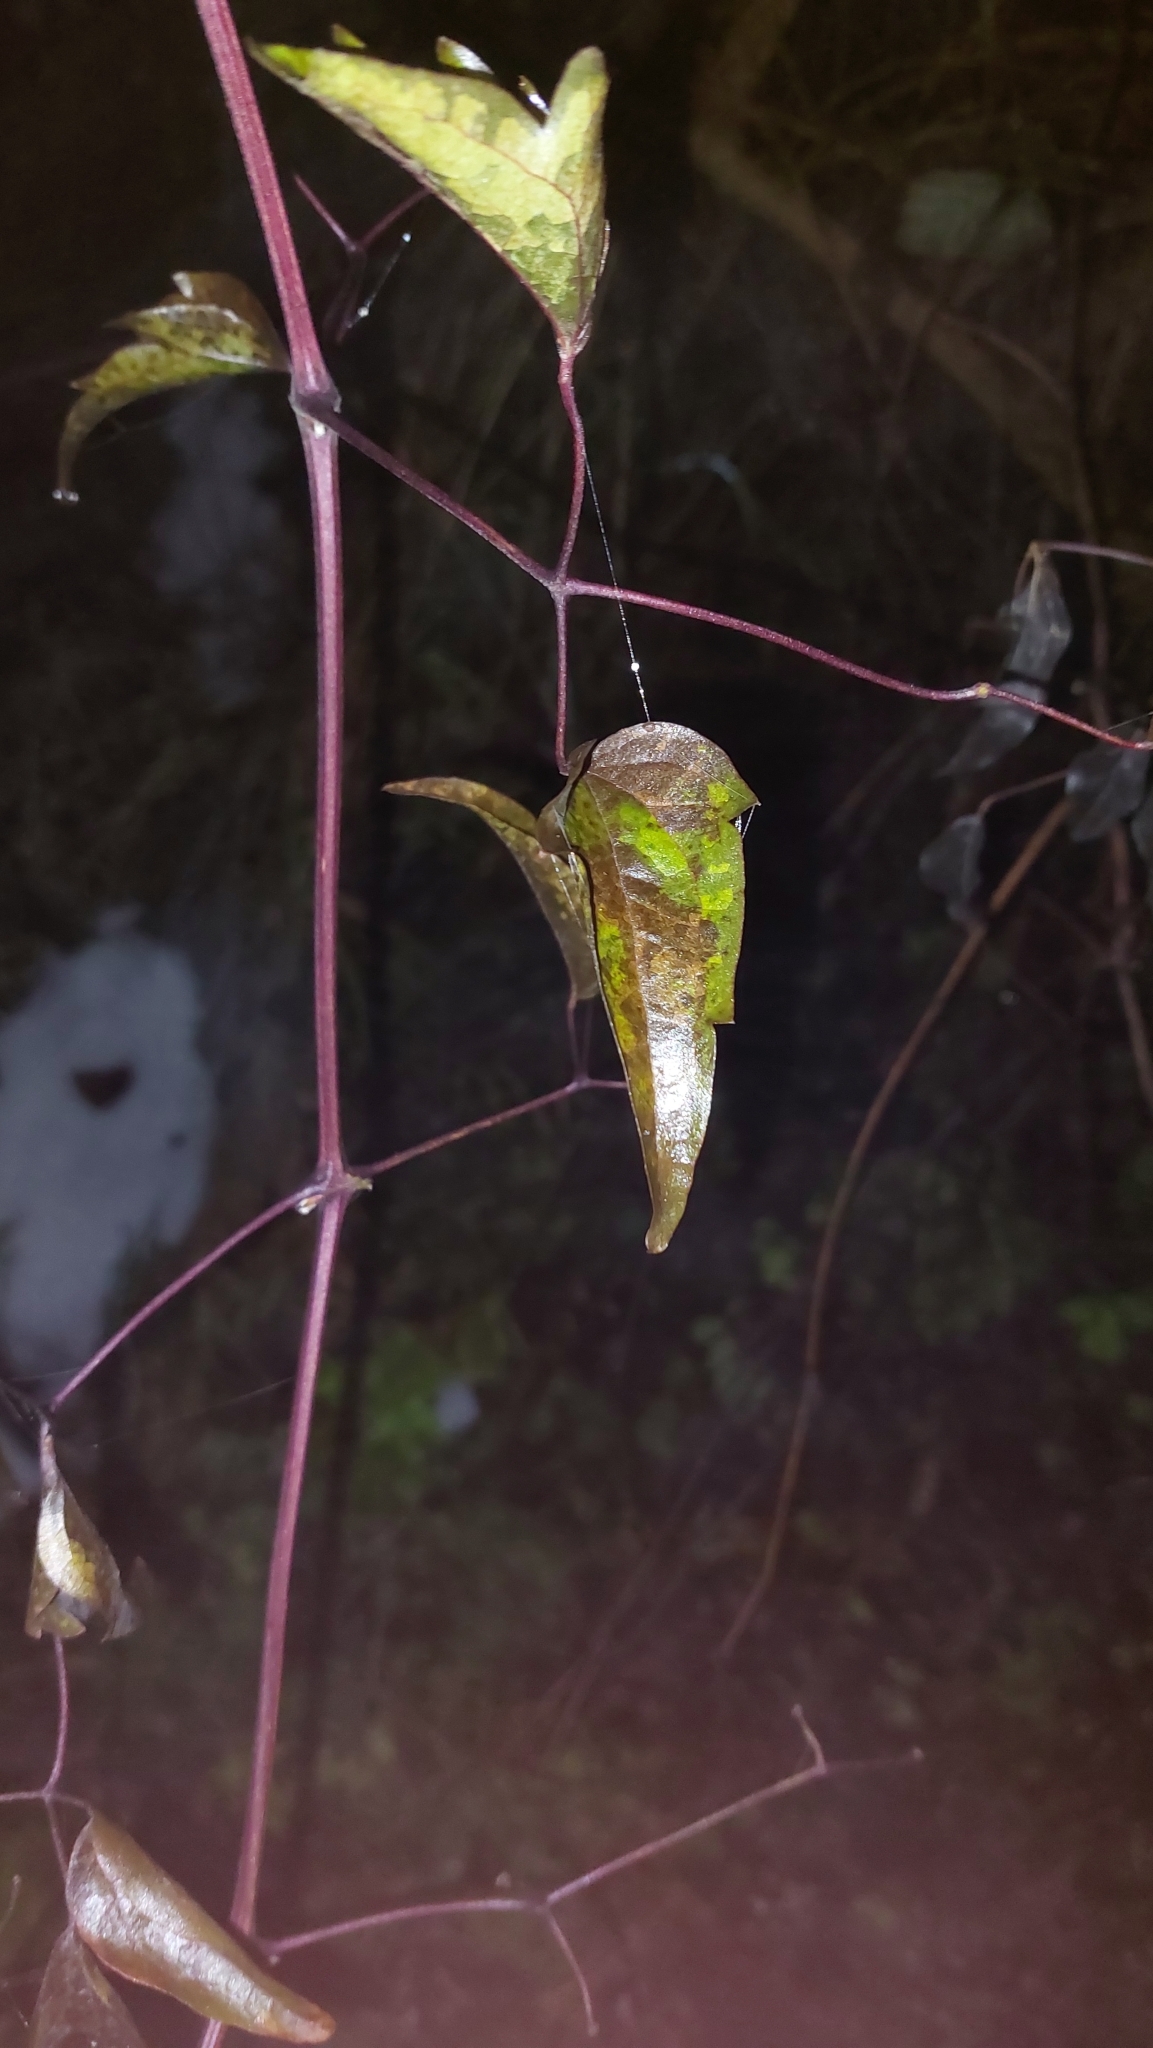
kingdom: Plantae
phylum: Tracheophyta
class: Magnoliopsida
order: Ranunculales
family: Ranunculaceae
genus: Clematis
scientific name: Clematis vitalba
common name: Evergreen clematis
